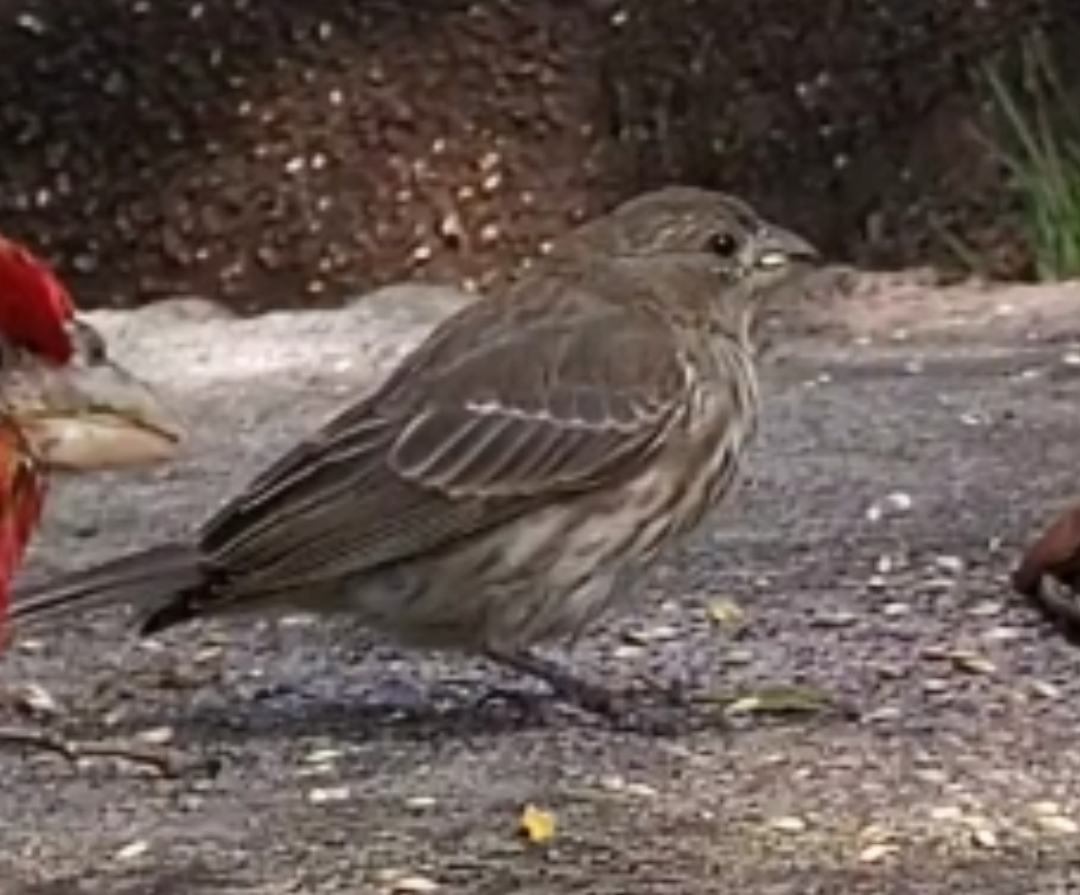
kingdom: Animalia
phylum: Chordata
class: Aves
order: Passeriformes
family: Fringillidae
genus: Haemorhous
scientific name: Haemorhous mexicanus
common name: House finch
